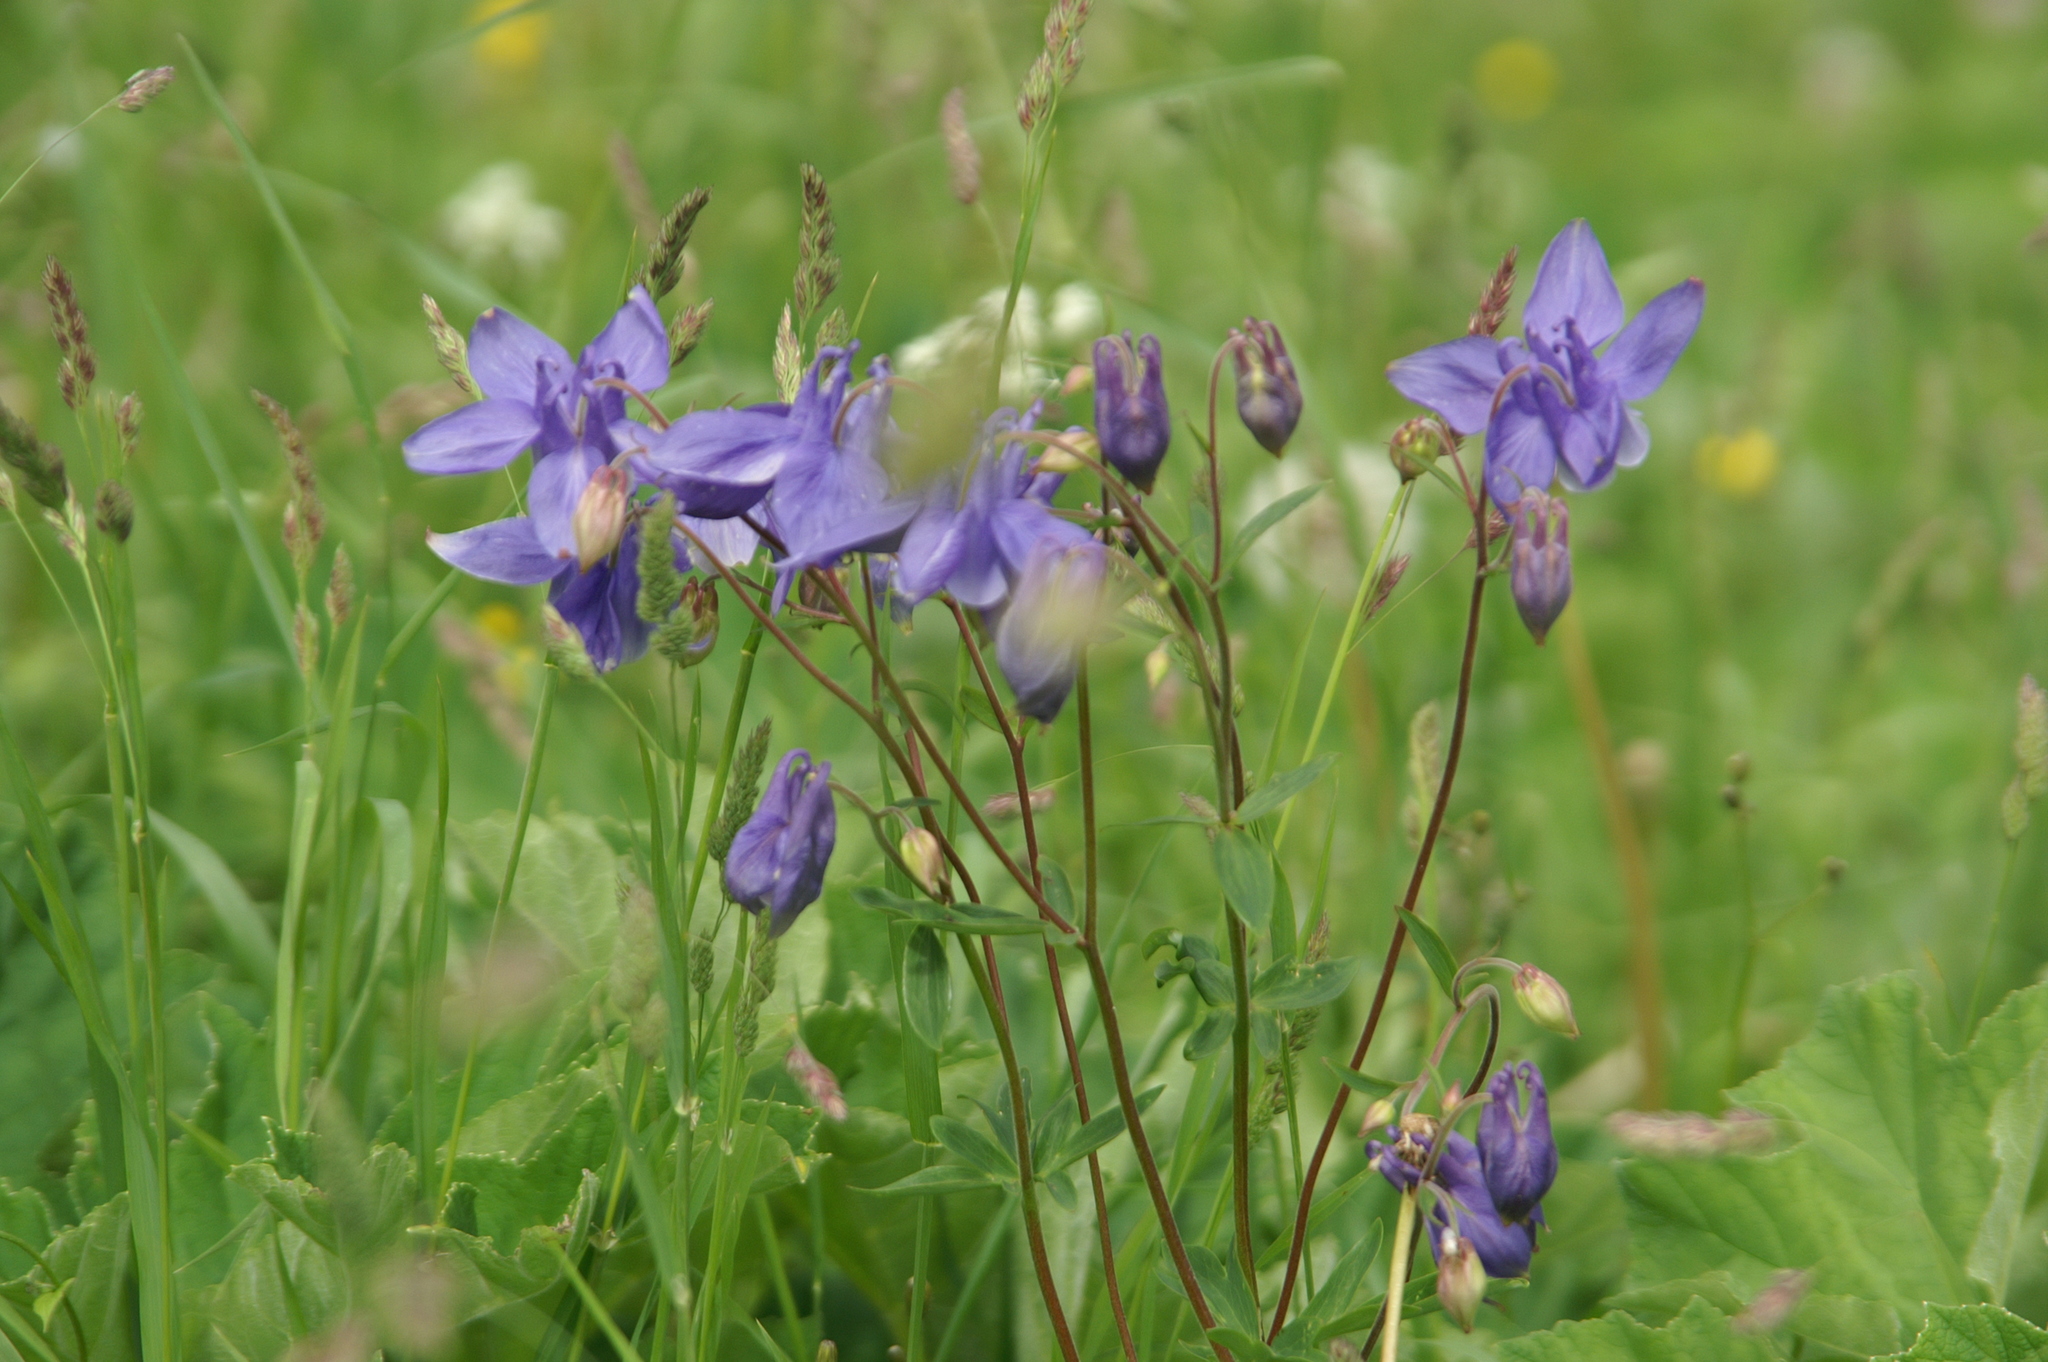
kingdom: Plantae
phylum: Tracheophyta
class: Magnoliopsida
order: Ranunculales
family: Ranunculaceae
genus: Aquilegia
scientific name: Aquilegia vulgaris
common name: Columbine
